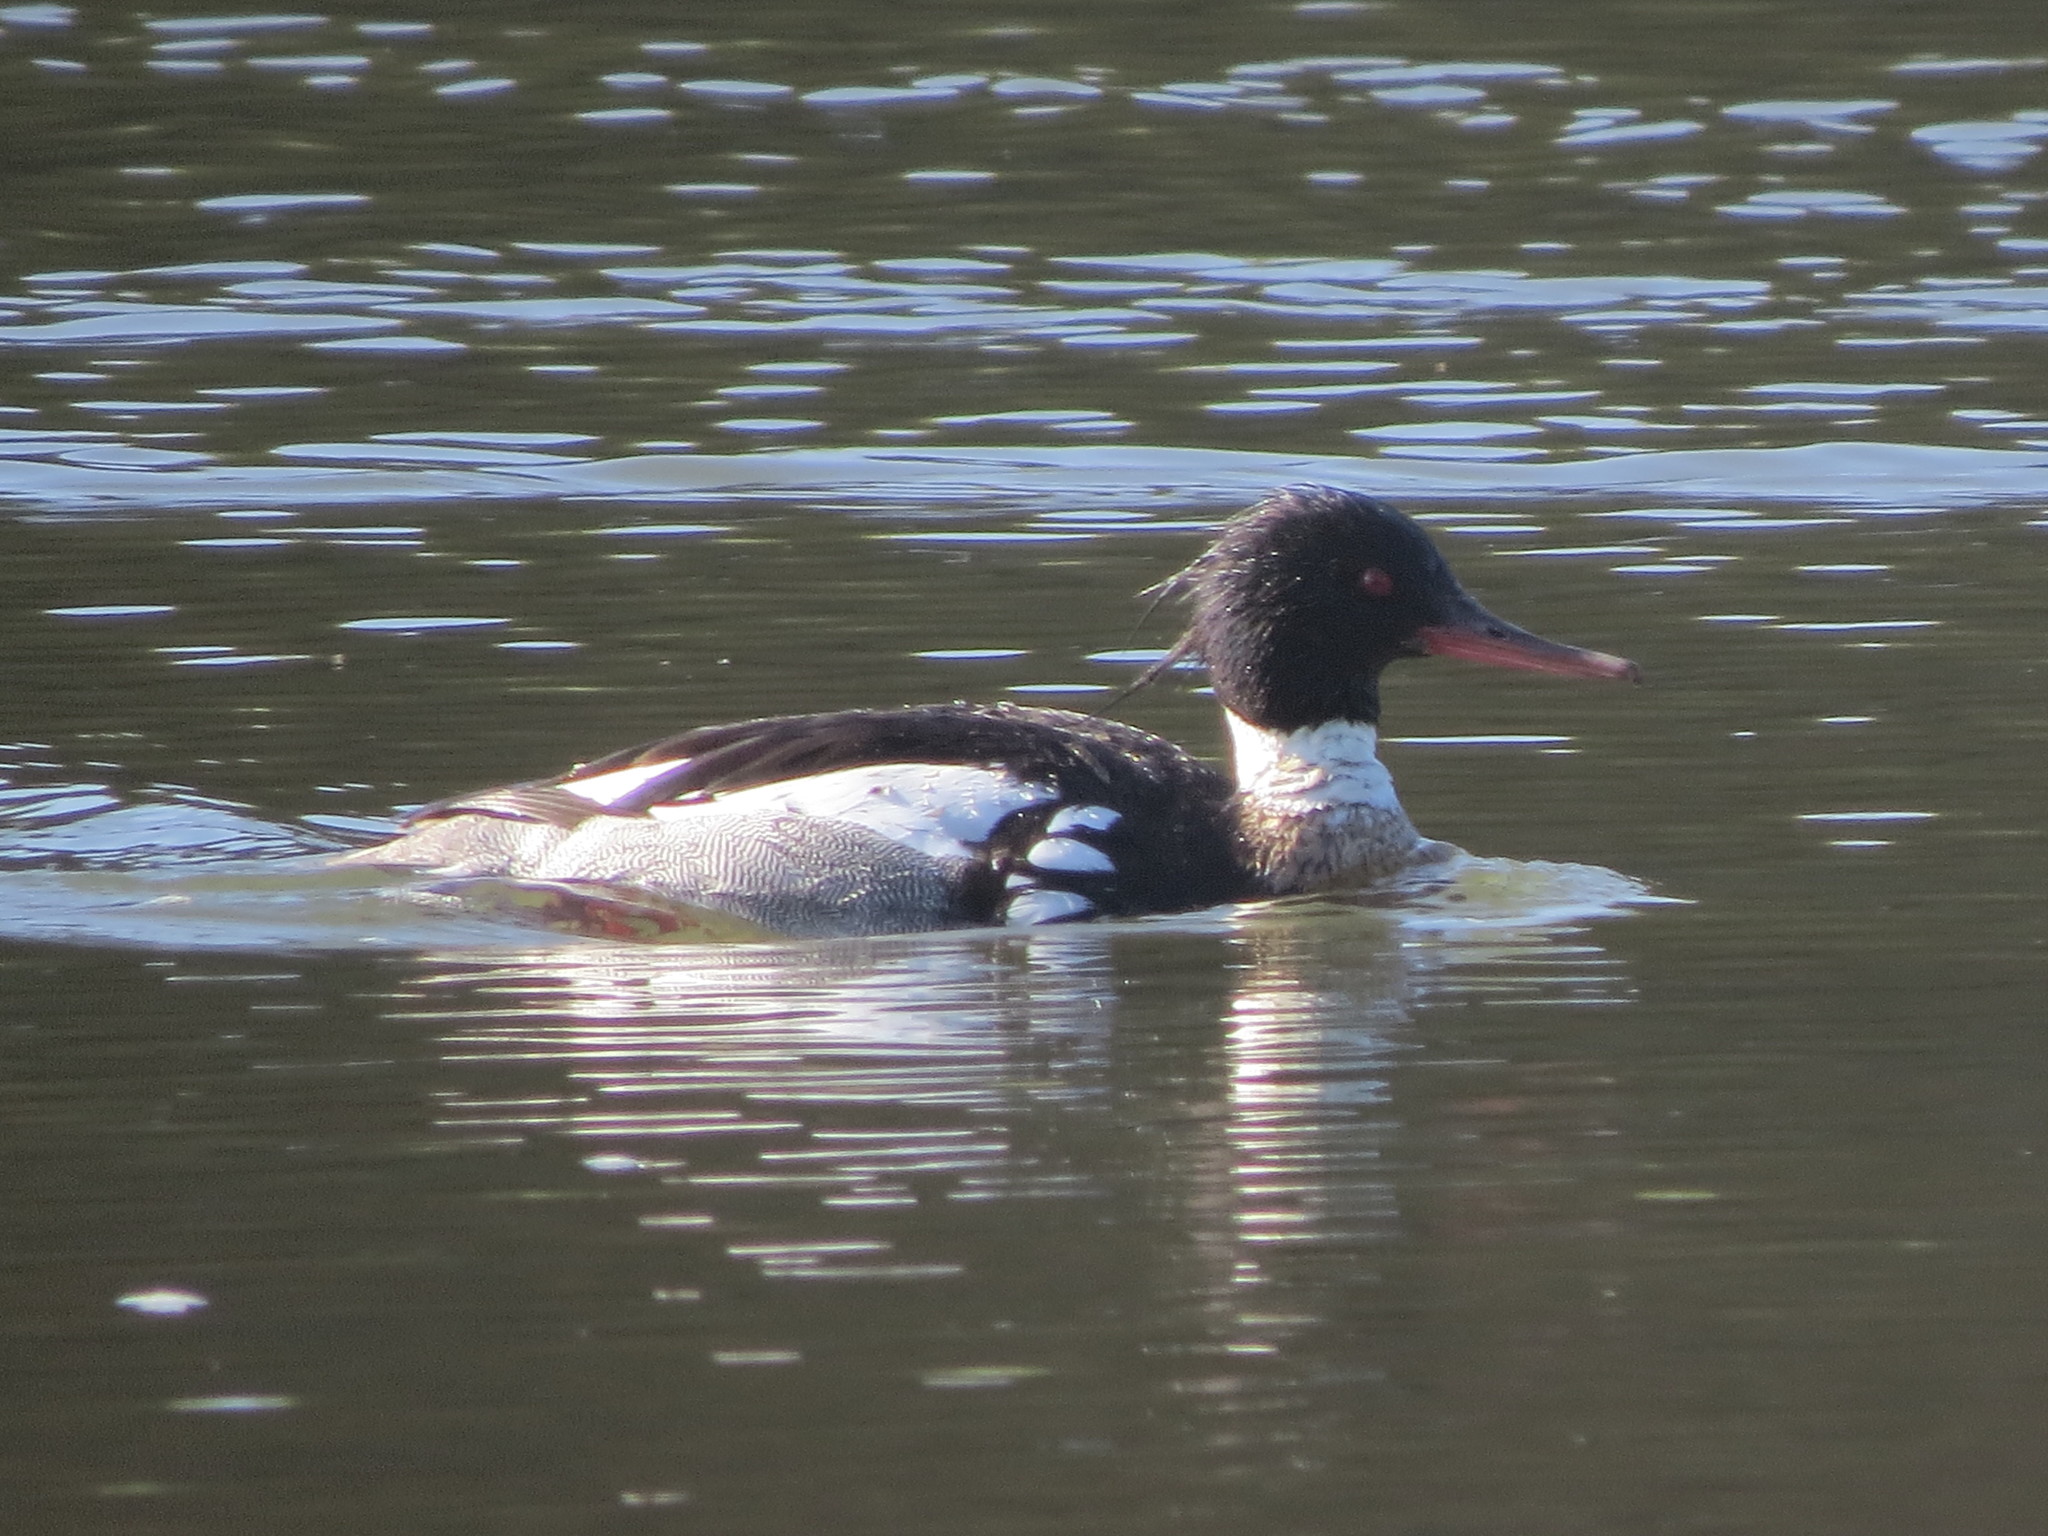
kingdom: Animalia
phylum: Chordata
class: Aves
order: Anseriformes
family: Anatidae
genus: Mergus
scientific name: Mergus serrator
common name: Red-breasted merganser
